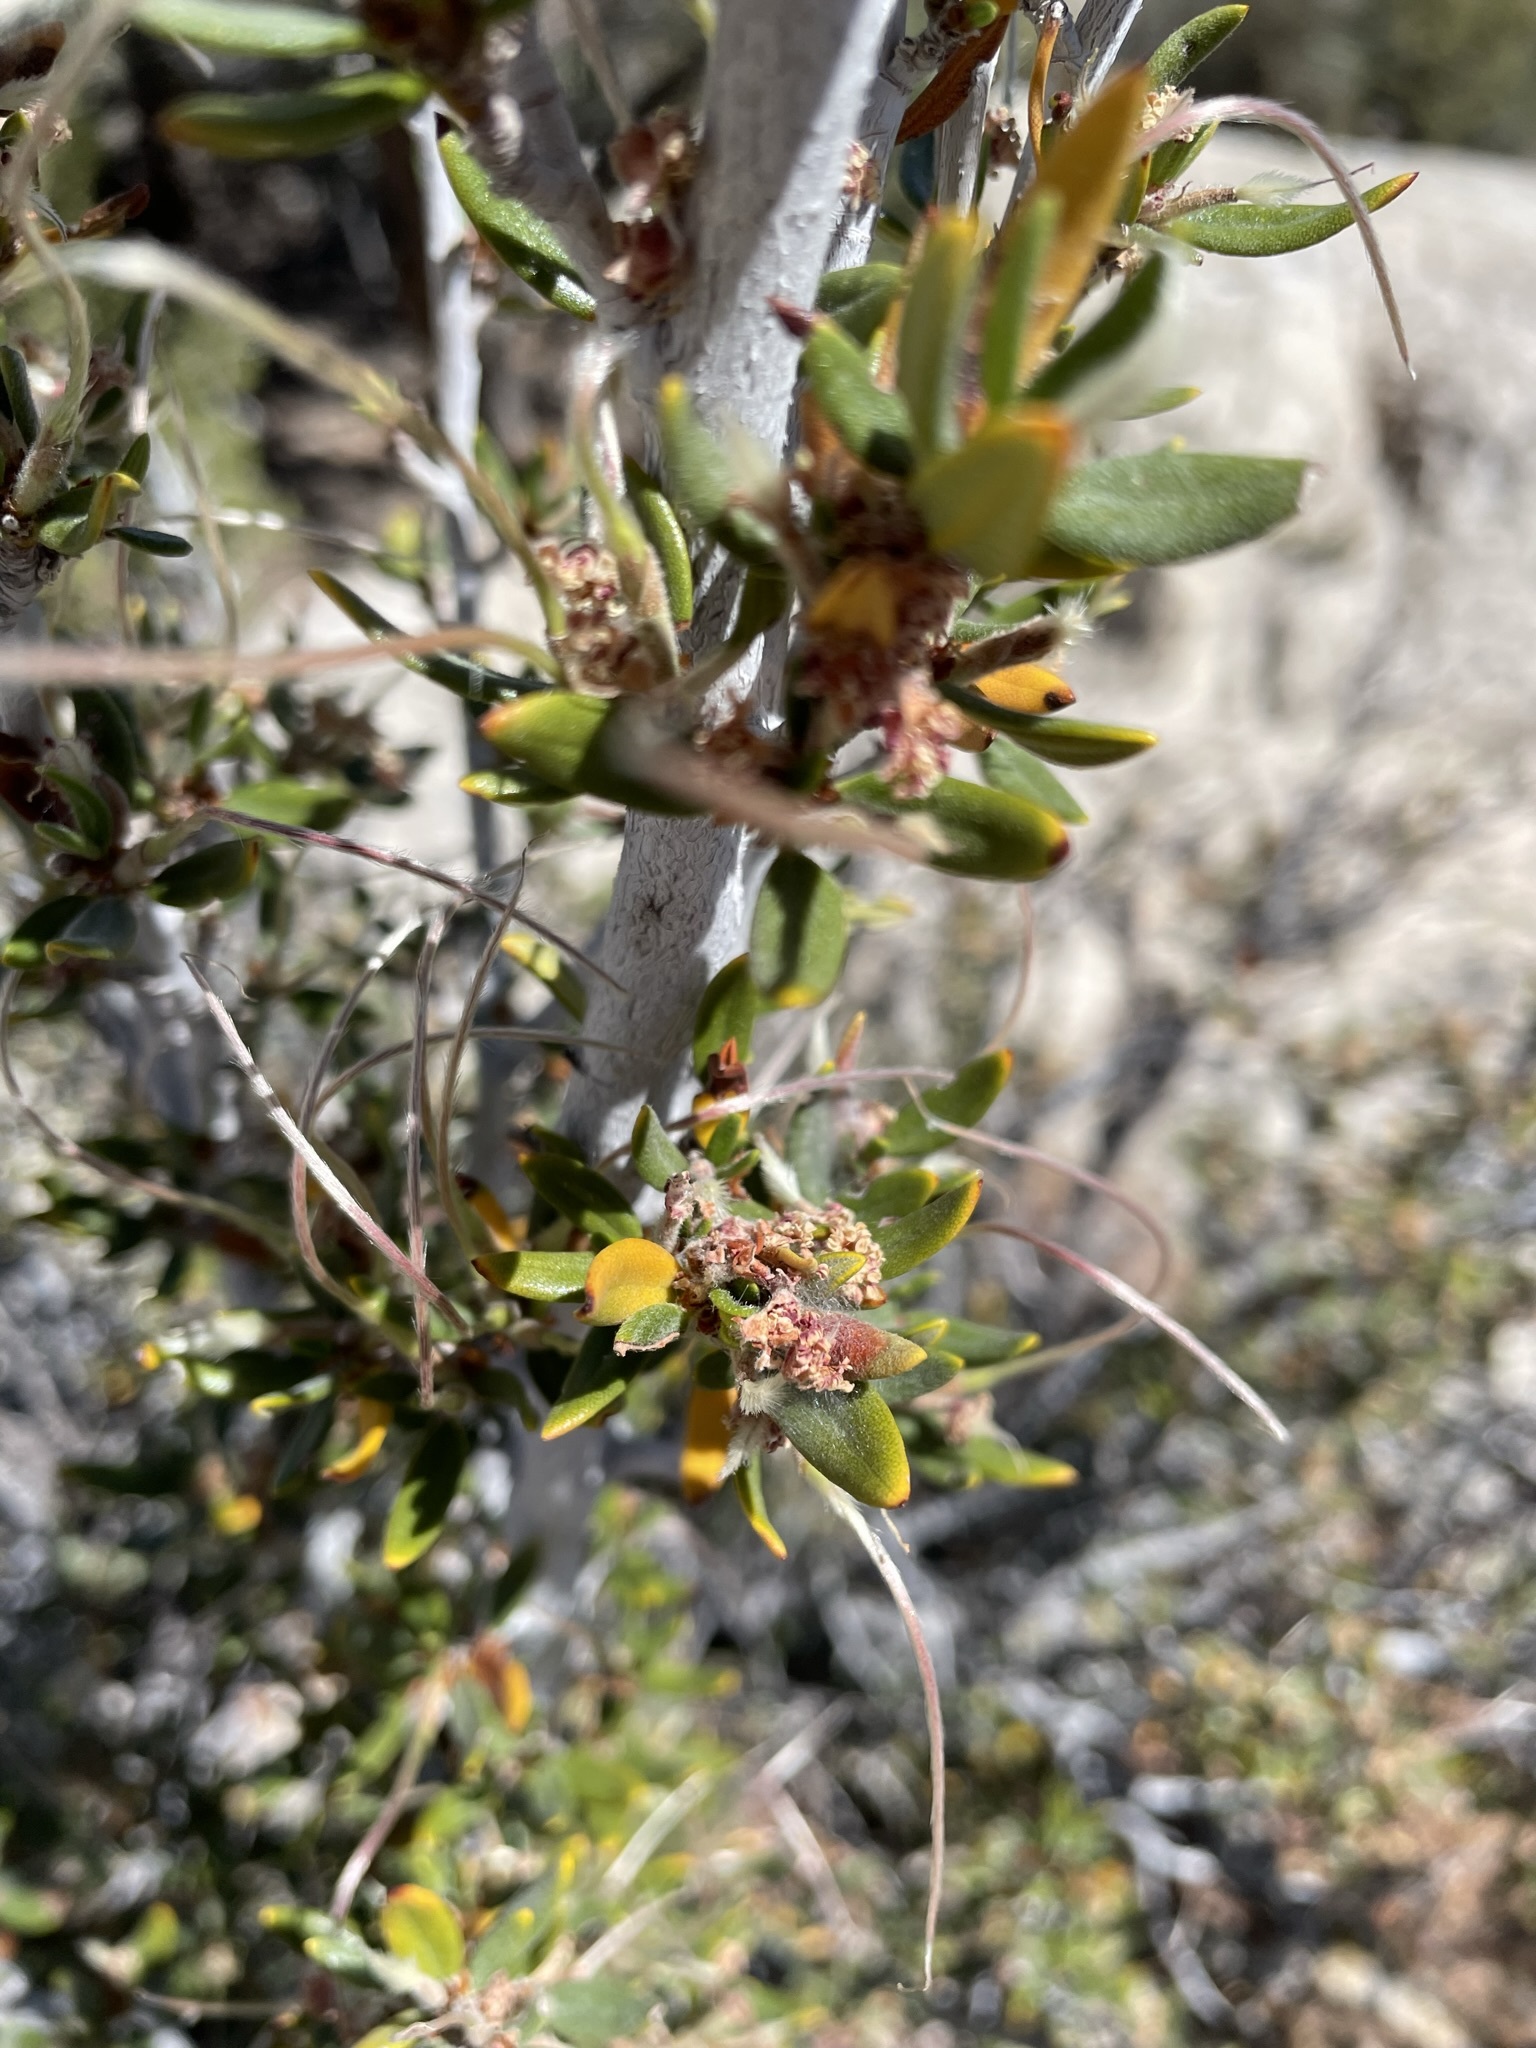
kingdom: Plantae
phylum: Tracheophyta
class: Magnoliopsida
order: Rosales
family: Rosaceae
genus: Cercocarpus
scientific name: Cercocarpus ledifolius
